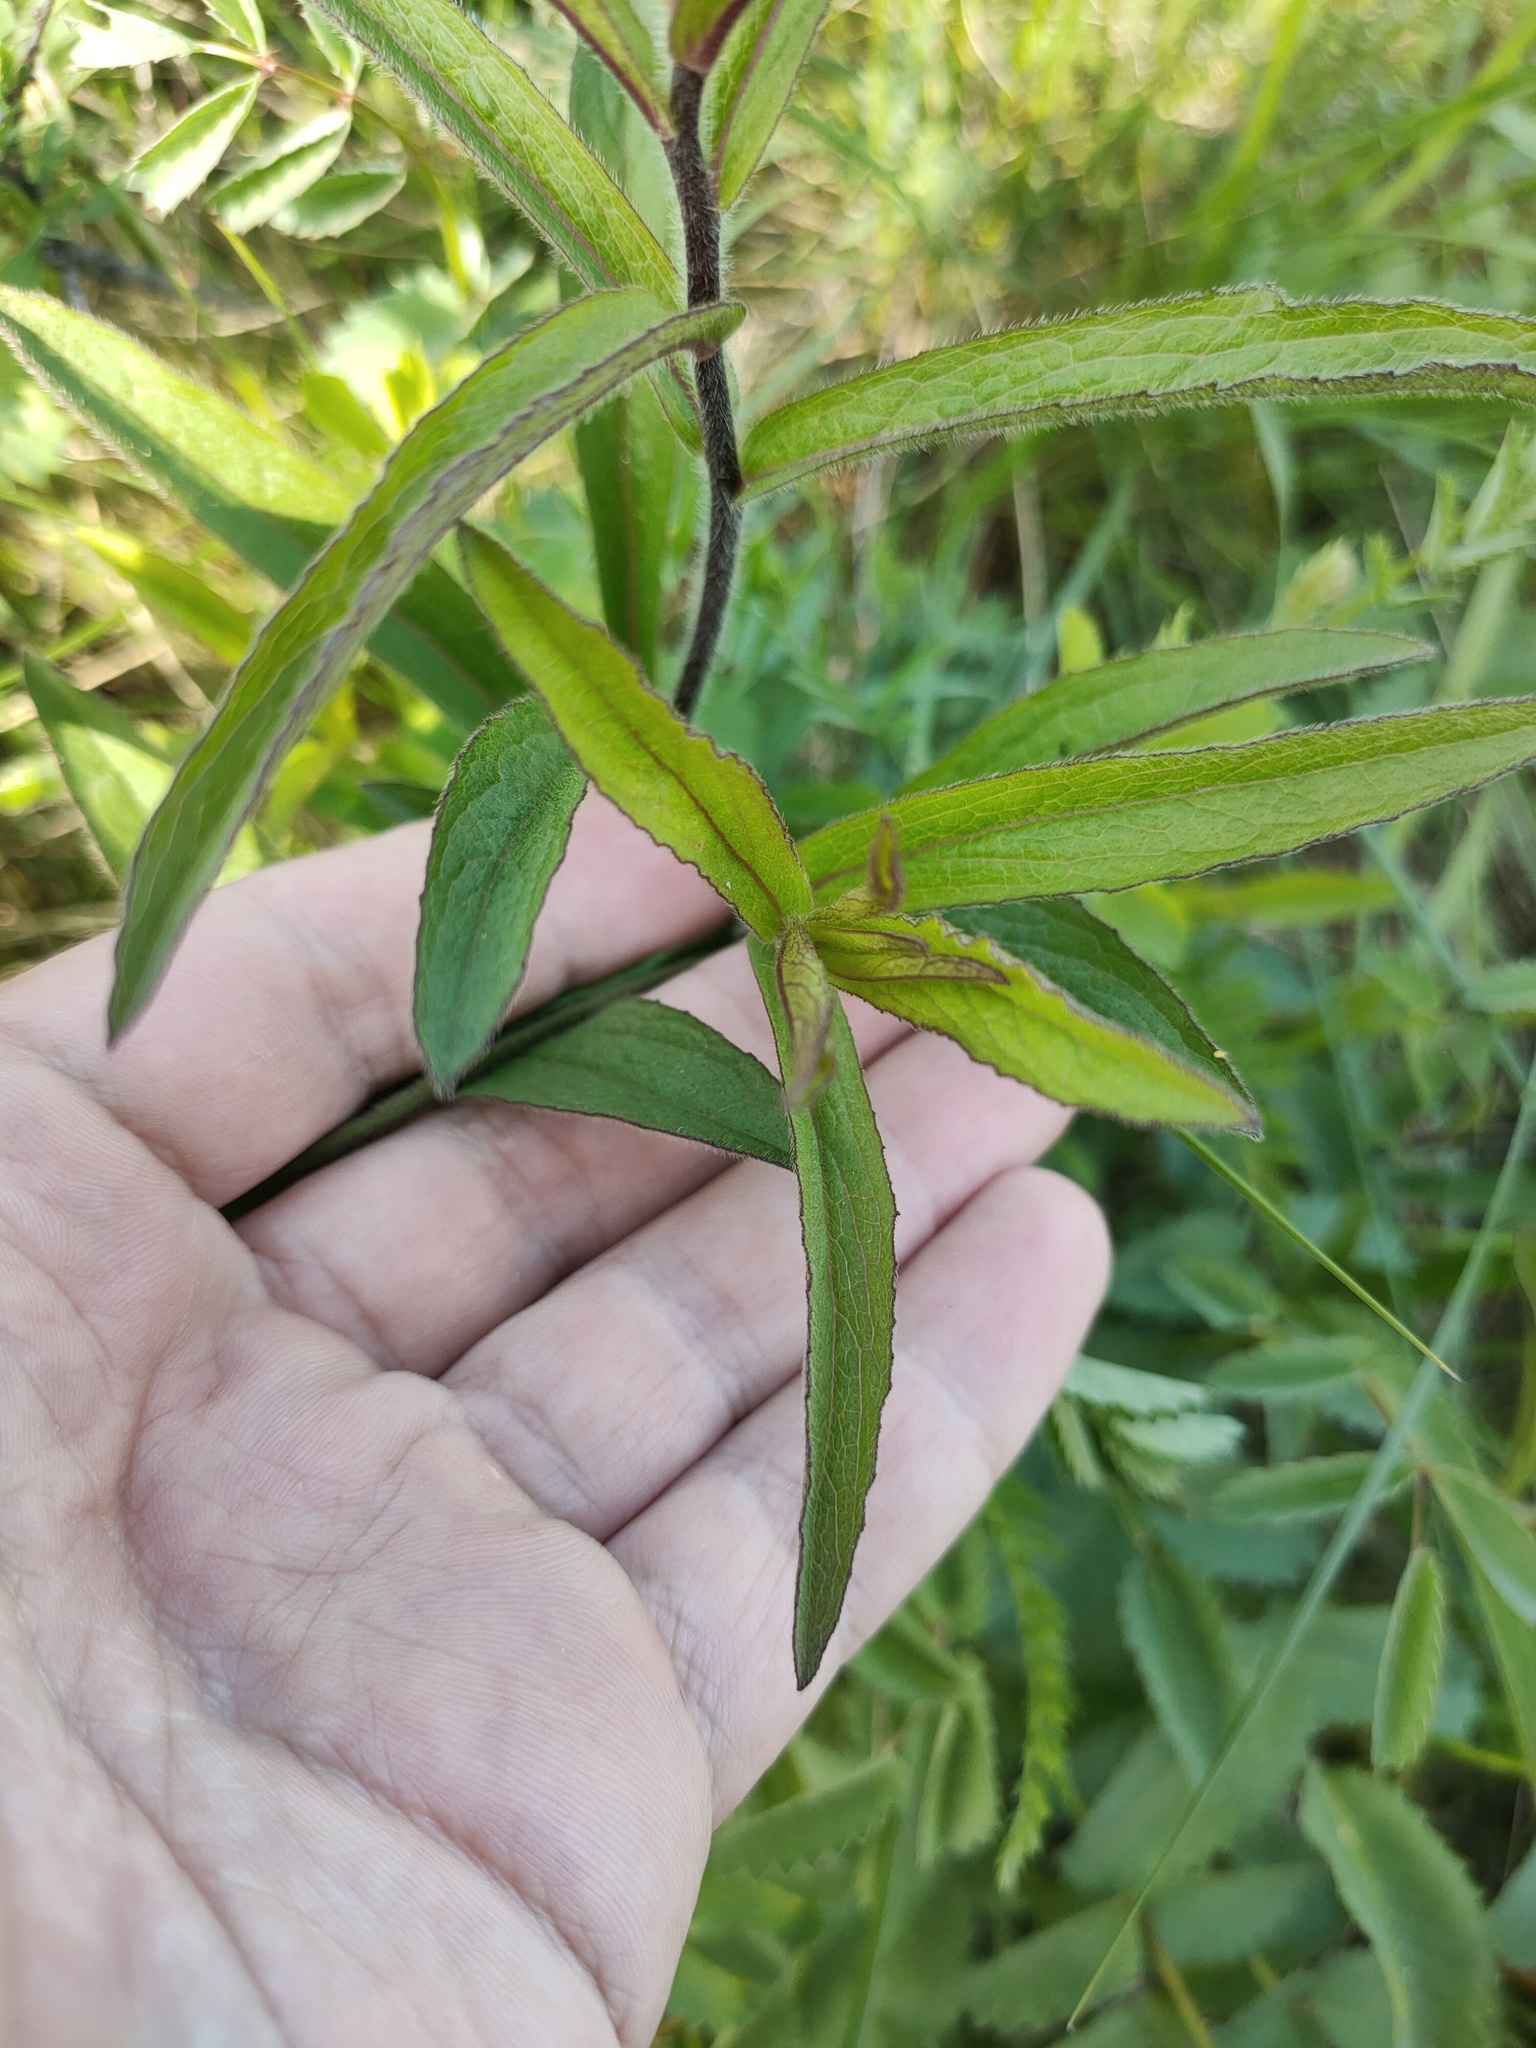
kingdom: Plantae
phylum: Tracheophyta
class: Magnoliopsida
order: Asterales
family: Asteraceae
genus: Pentanema
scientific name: Pentanema hirtum
